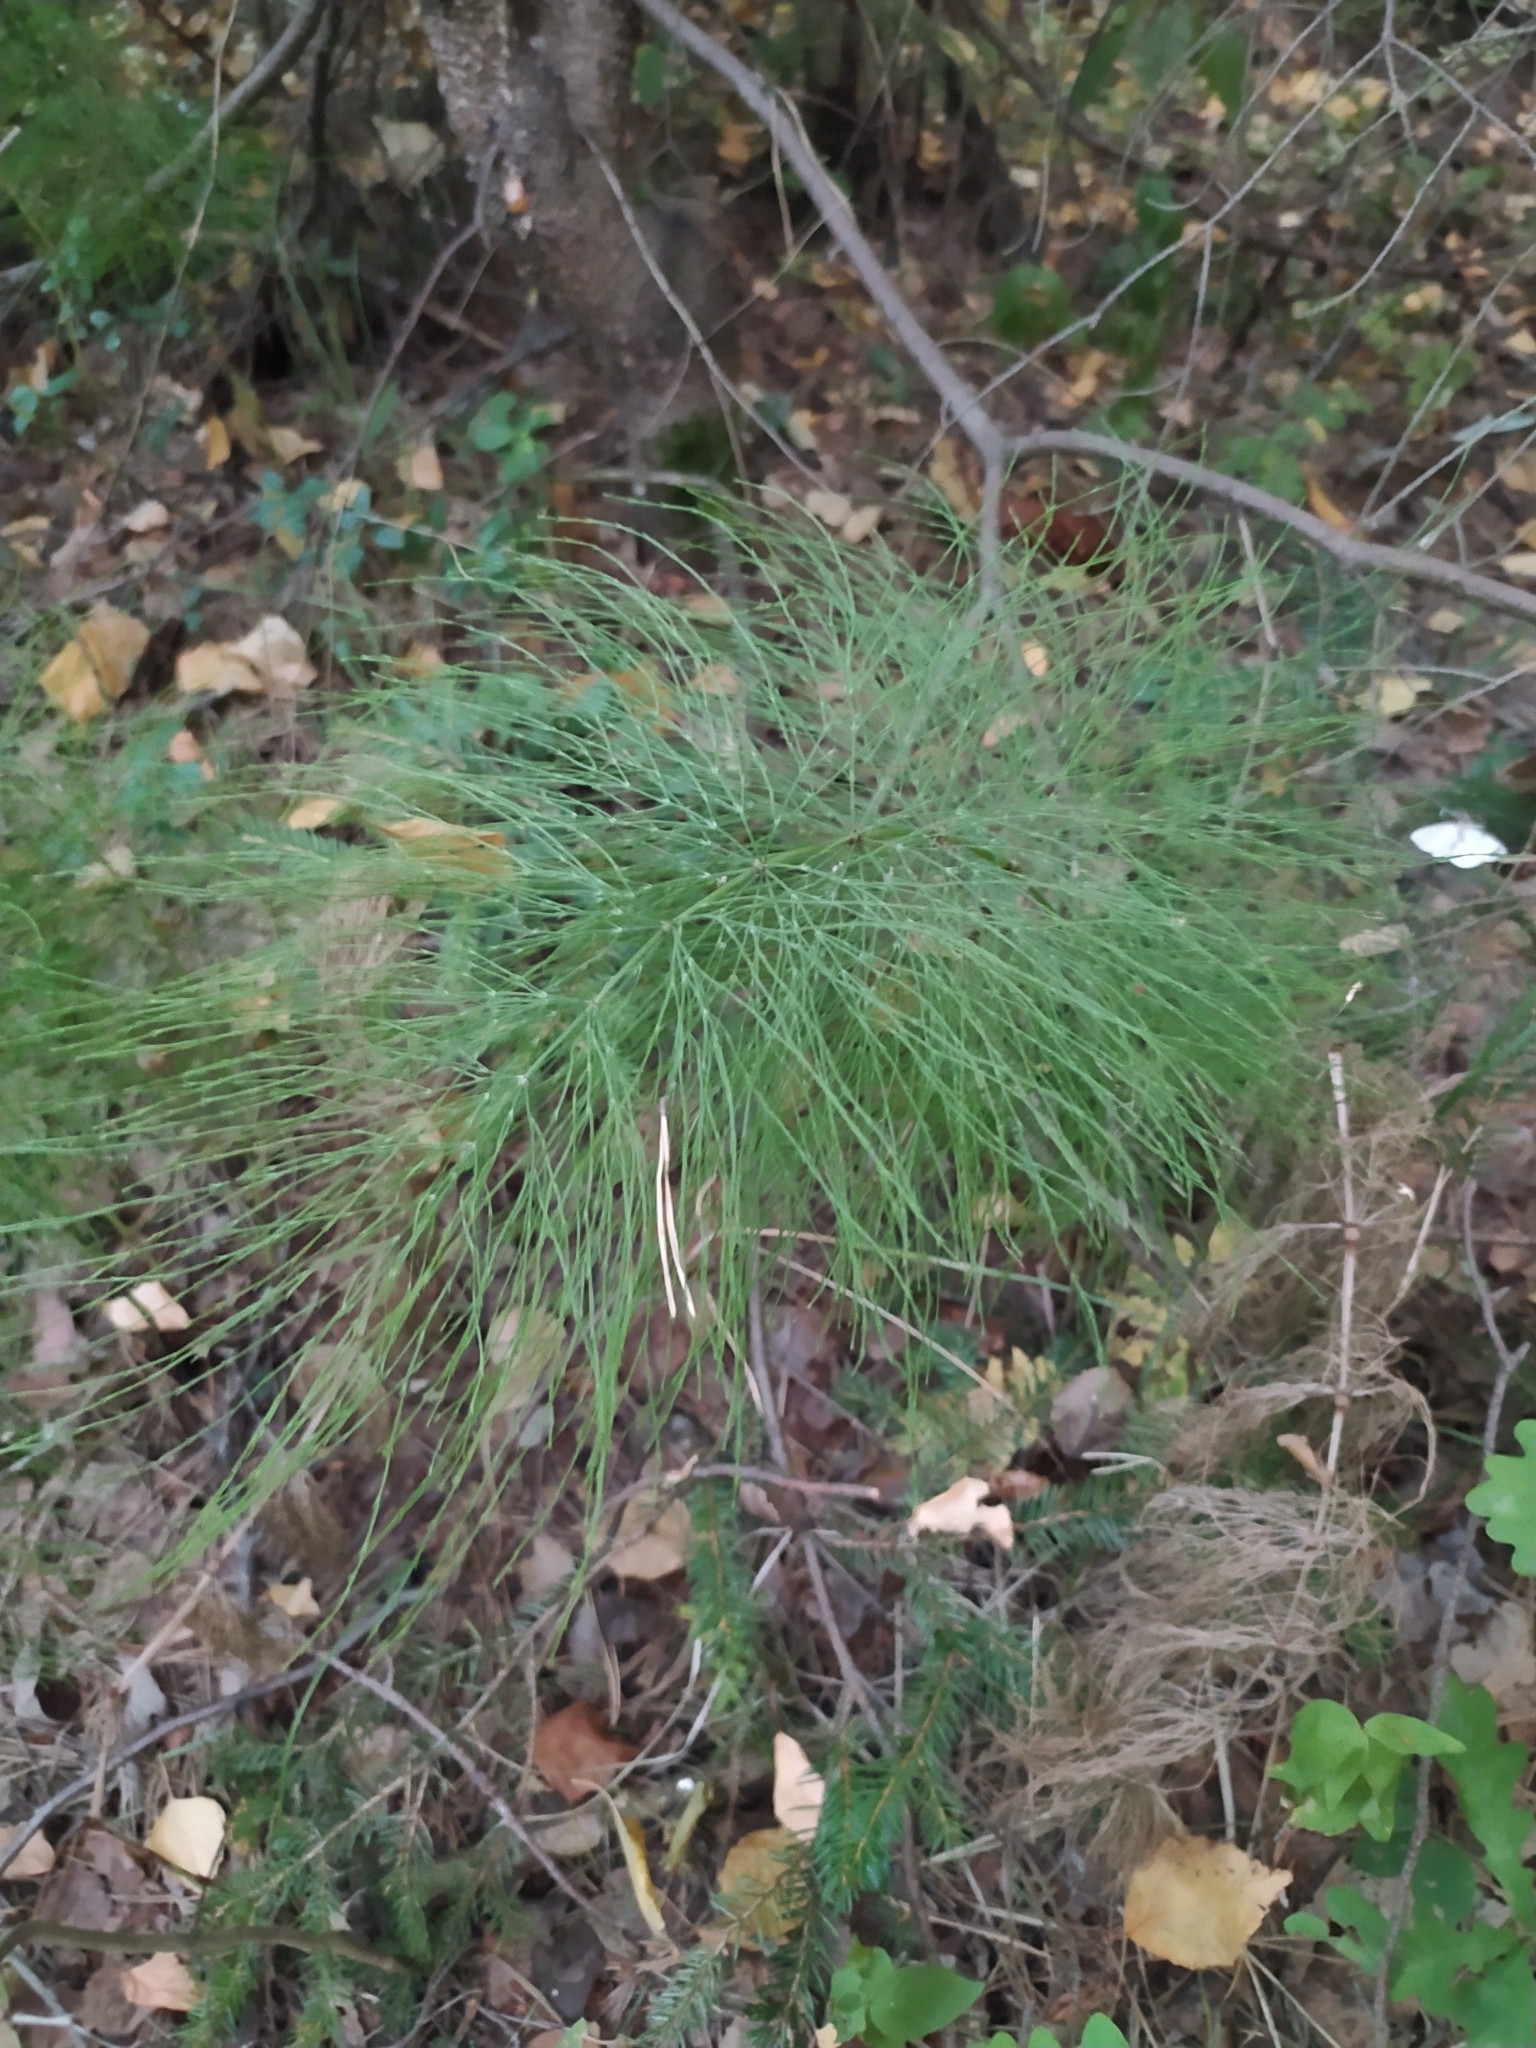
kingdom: Plantae
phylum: Tracheophyta
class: Polypodiopsida
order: Equisetales
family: Equisetaceae
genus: Equisetum
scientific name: Equisetum sylvaticum
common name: Wood horsetail
